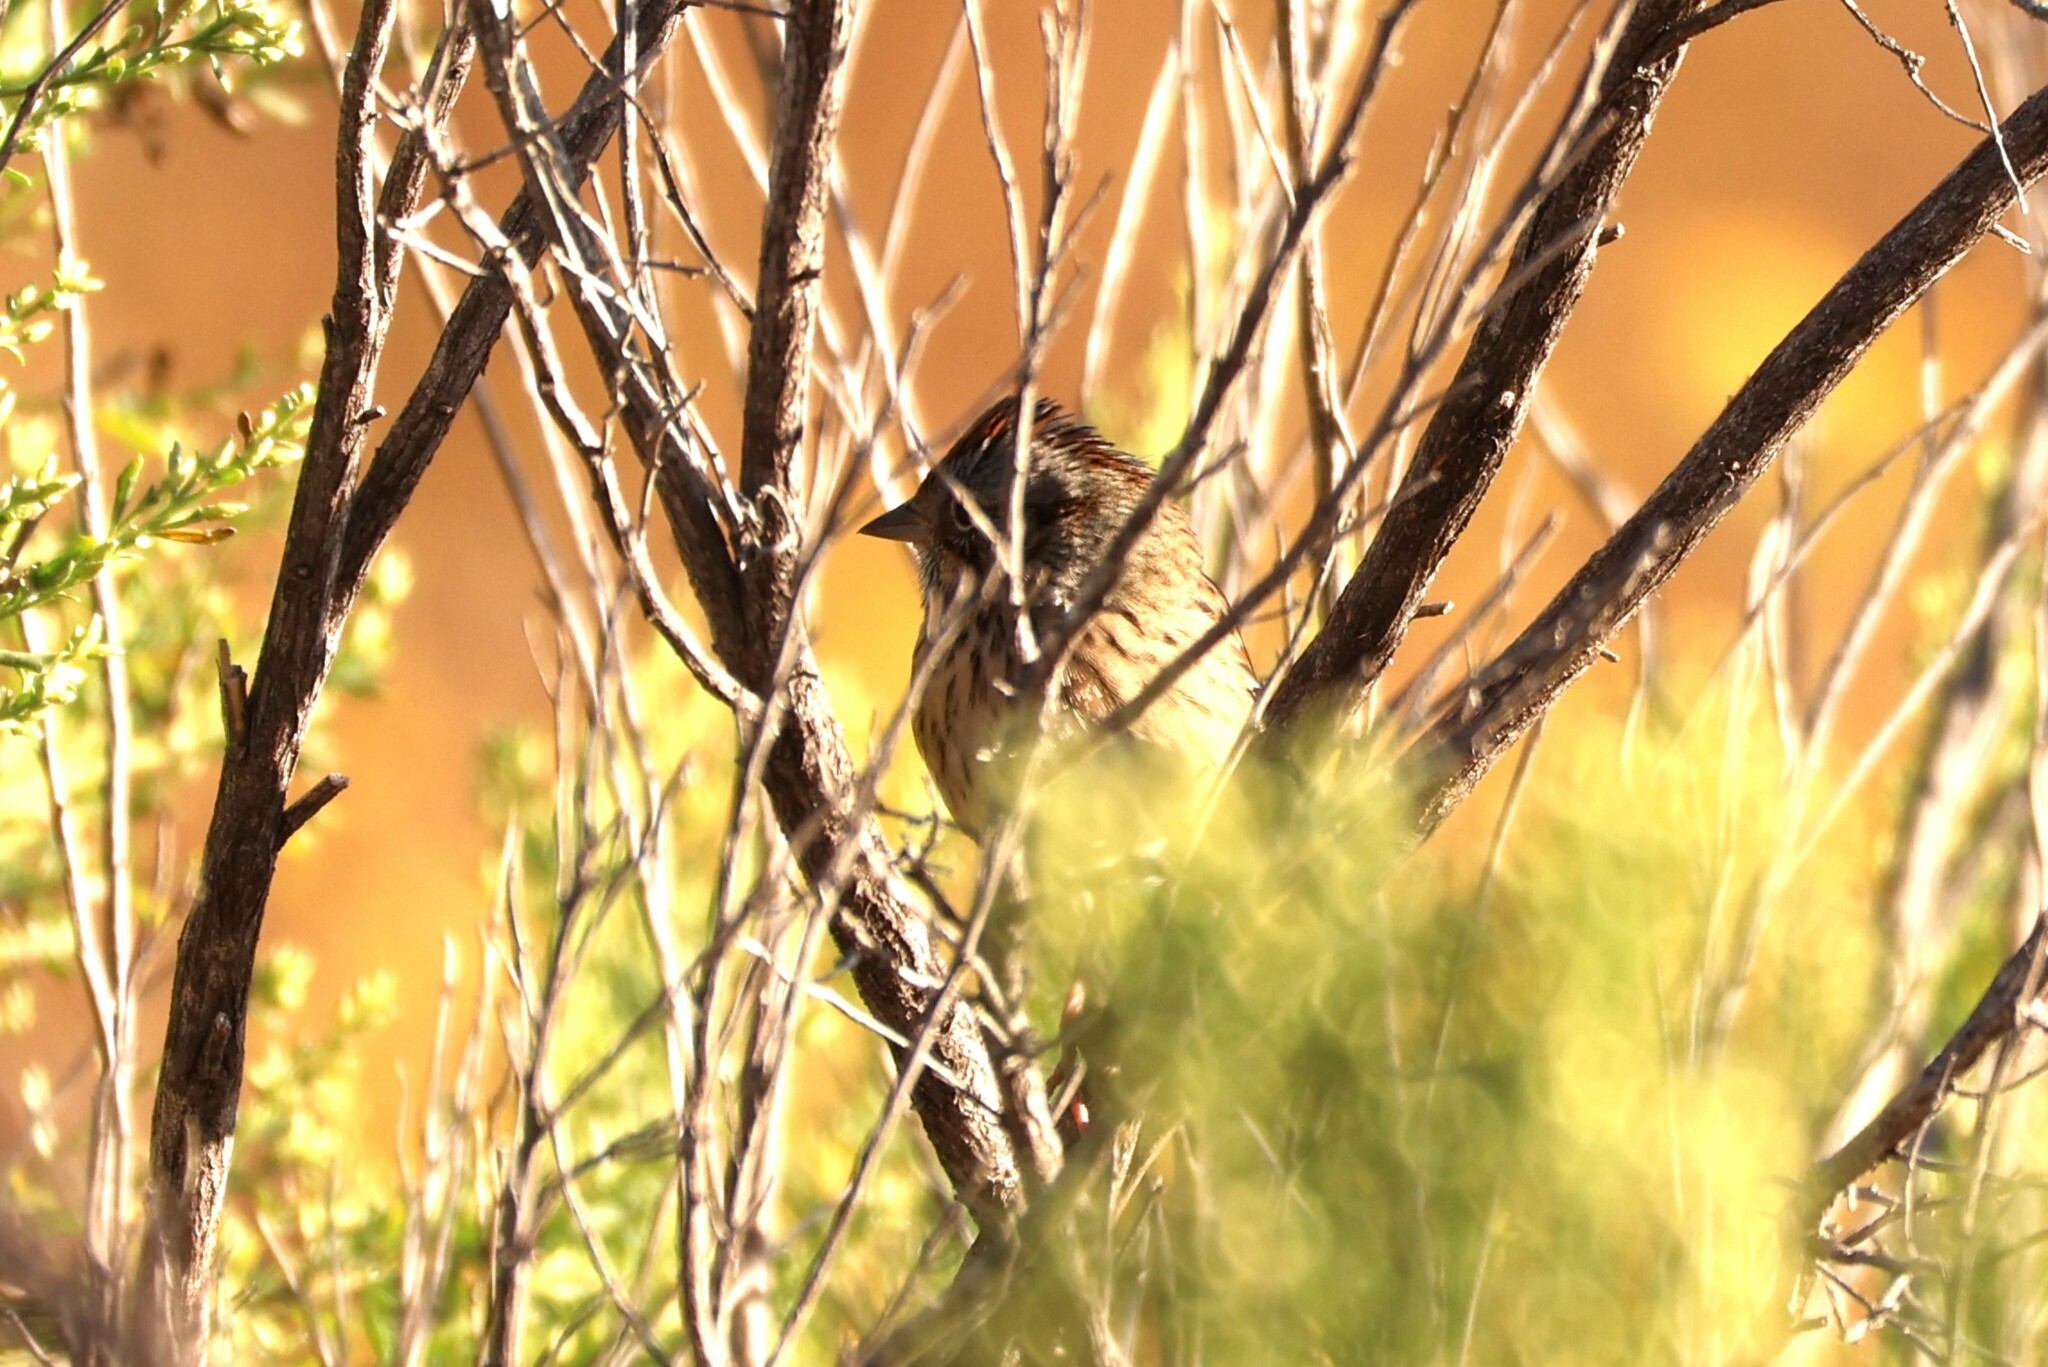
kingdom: Animalia
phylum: Chordata
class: Aves
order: Passeriformes
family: Passerellidae
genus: Melospiza
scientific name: Melospiza lincolnii
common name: Lincoln's sparrow
